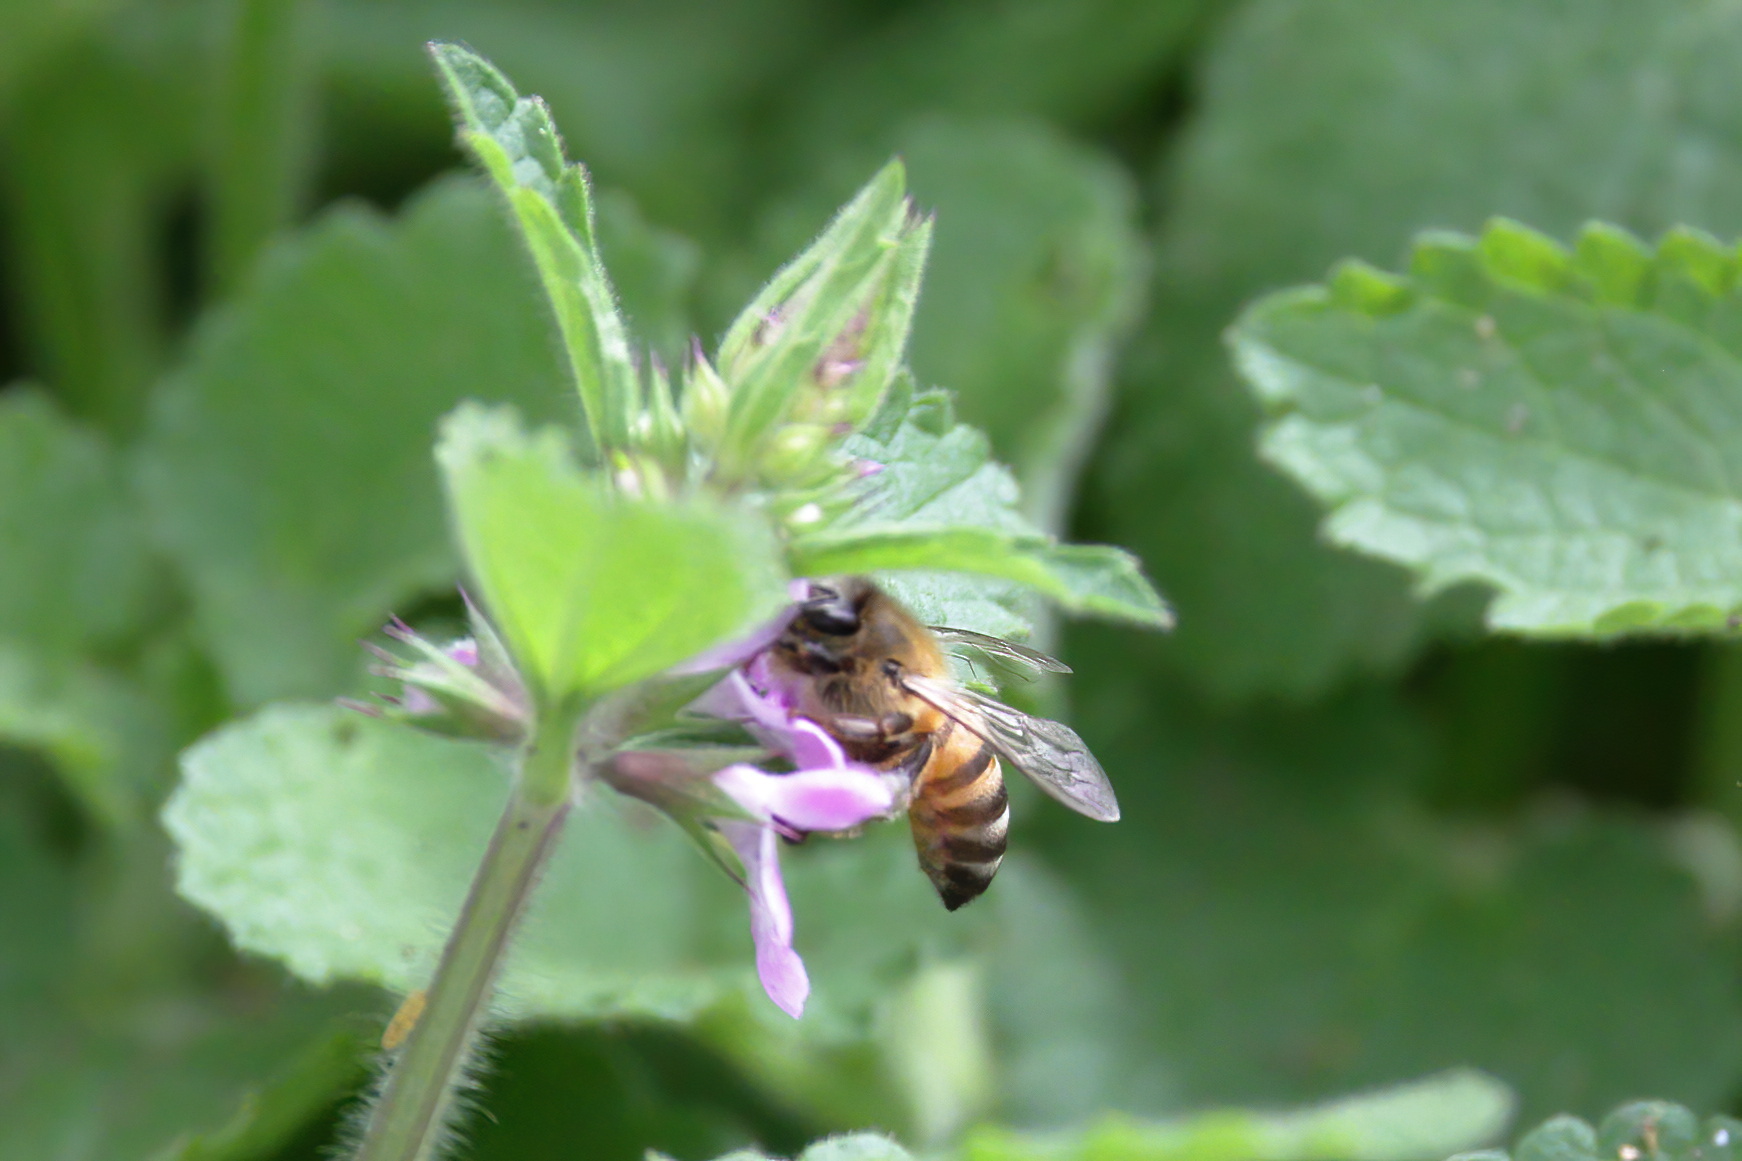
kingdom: Animalia
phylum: Arthropoda
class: Insecta
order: Hymenoptera
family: Apidae
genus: Apis
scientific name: Apis mellifera
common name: Honey bee
